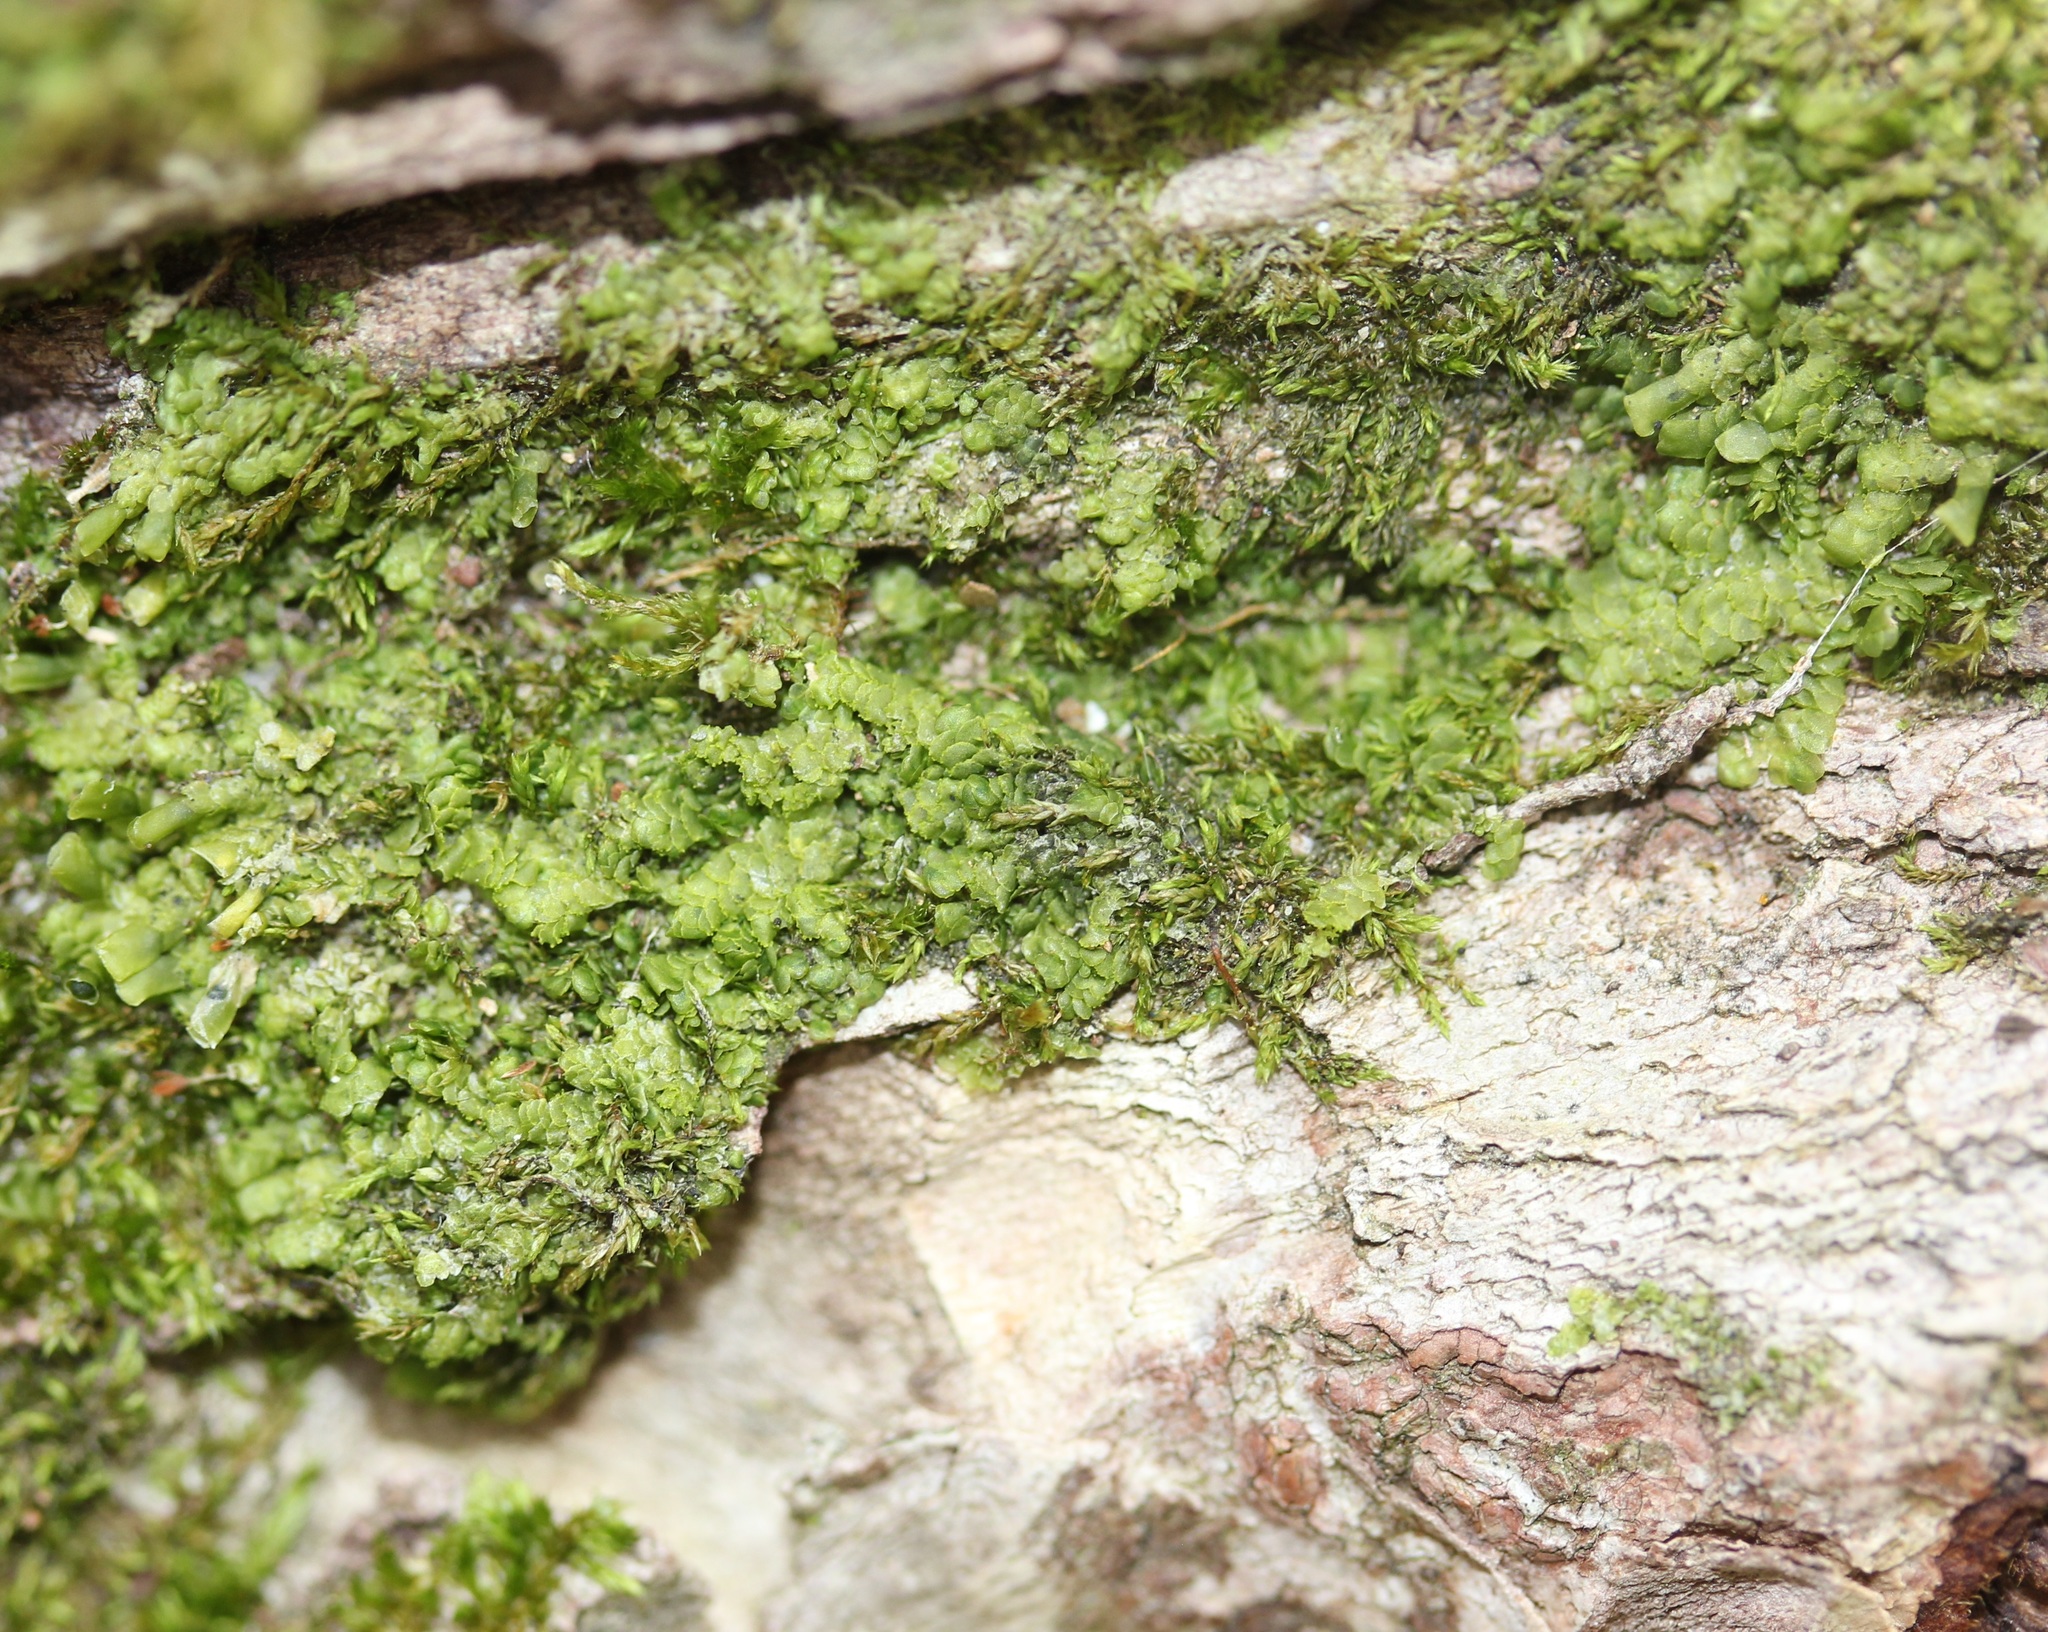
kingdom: Plantae
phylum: Marchantiophyta
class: Jungermanniopsida
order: Porellales
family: Radulaceae
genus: Radula
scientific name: Radula complanata
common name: Flat-leaved scalewort
